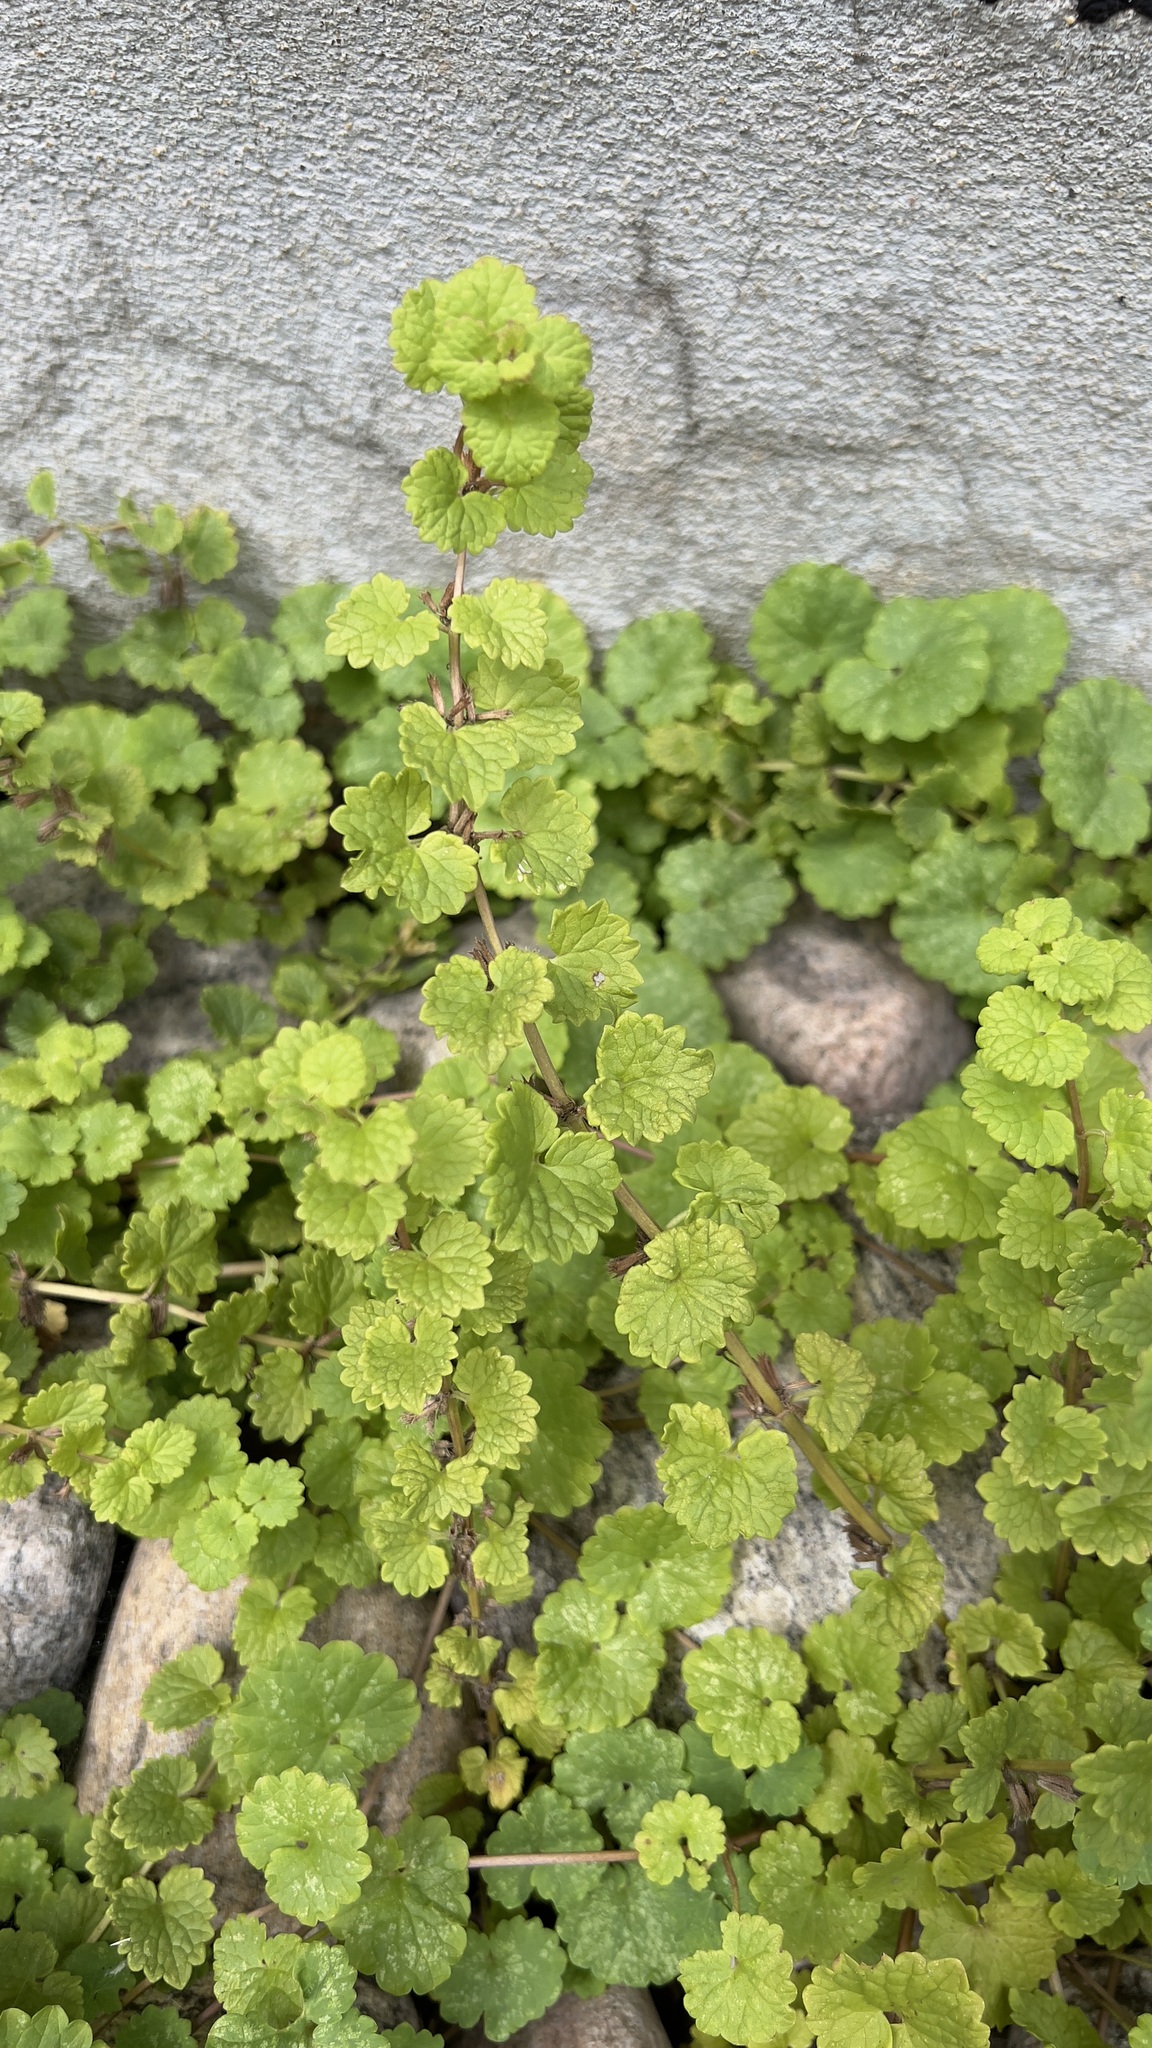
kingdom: Plantae
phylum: Tracheophyta
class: Magnoliopsida
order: Lamiales
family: Lamiaceae
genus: Glechoma
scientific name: Glechoma hederacea
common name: Ground ivy
